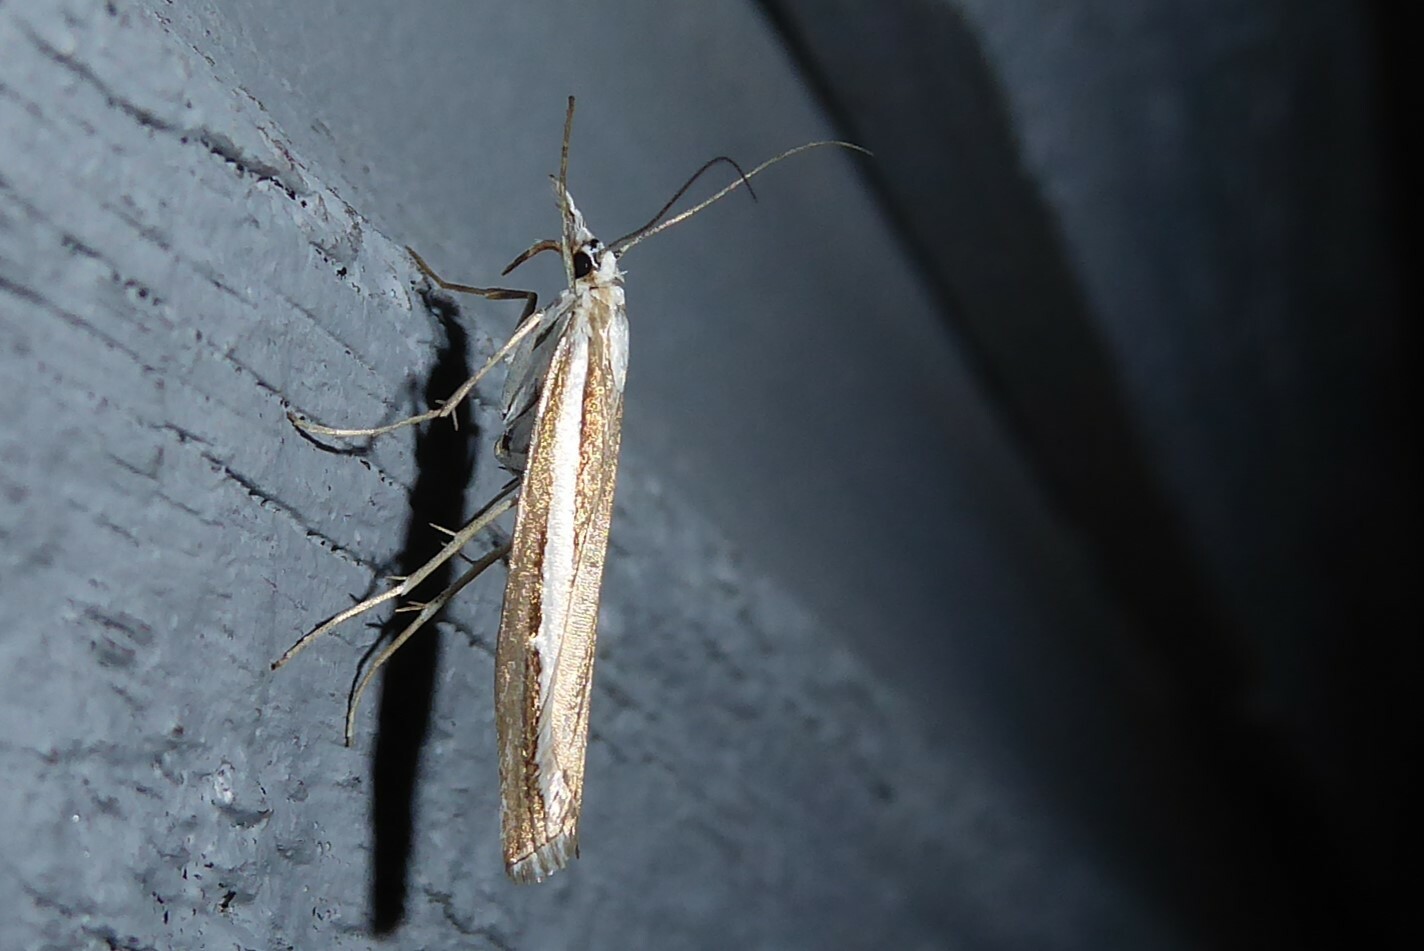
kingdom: Animalia
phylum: Arthropoda
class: Insecta
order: Lepidoptera
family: Crambidae
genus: Orocrambus
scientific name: Orocrambus vittellus
